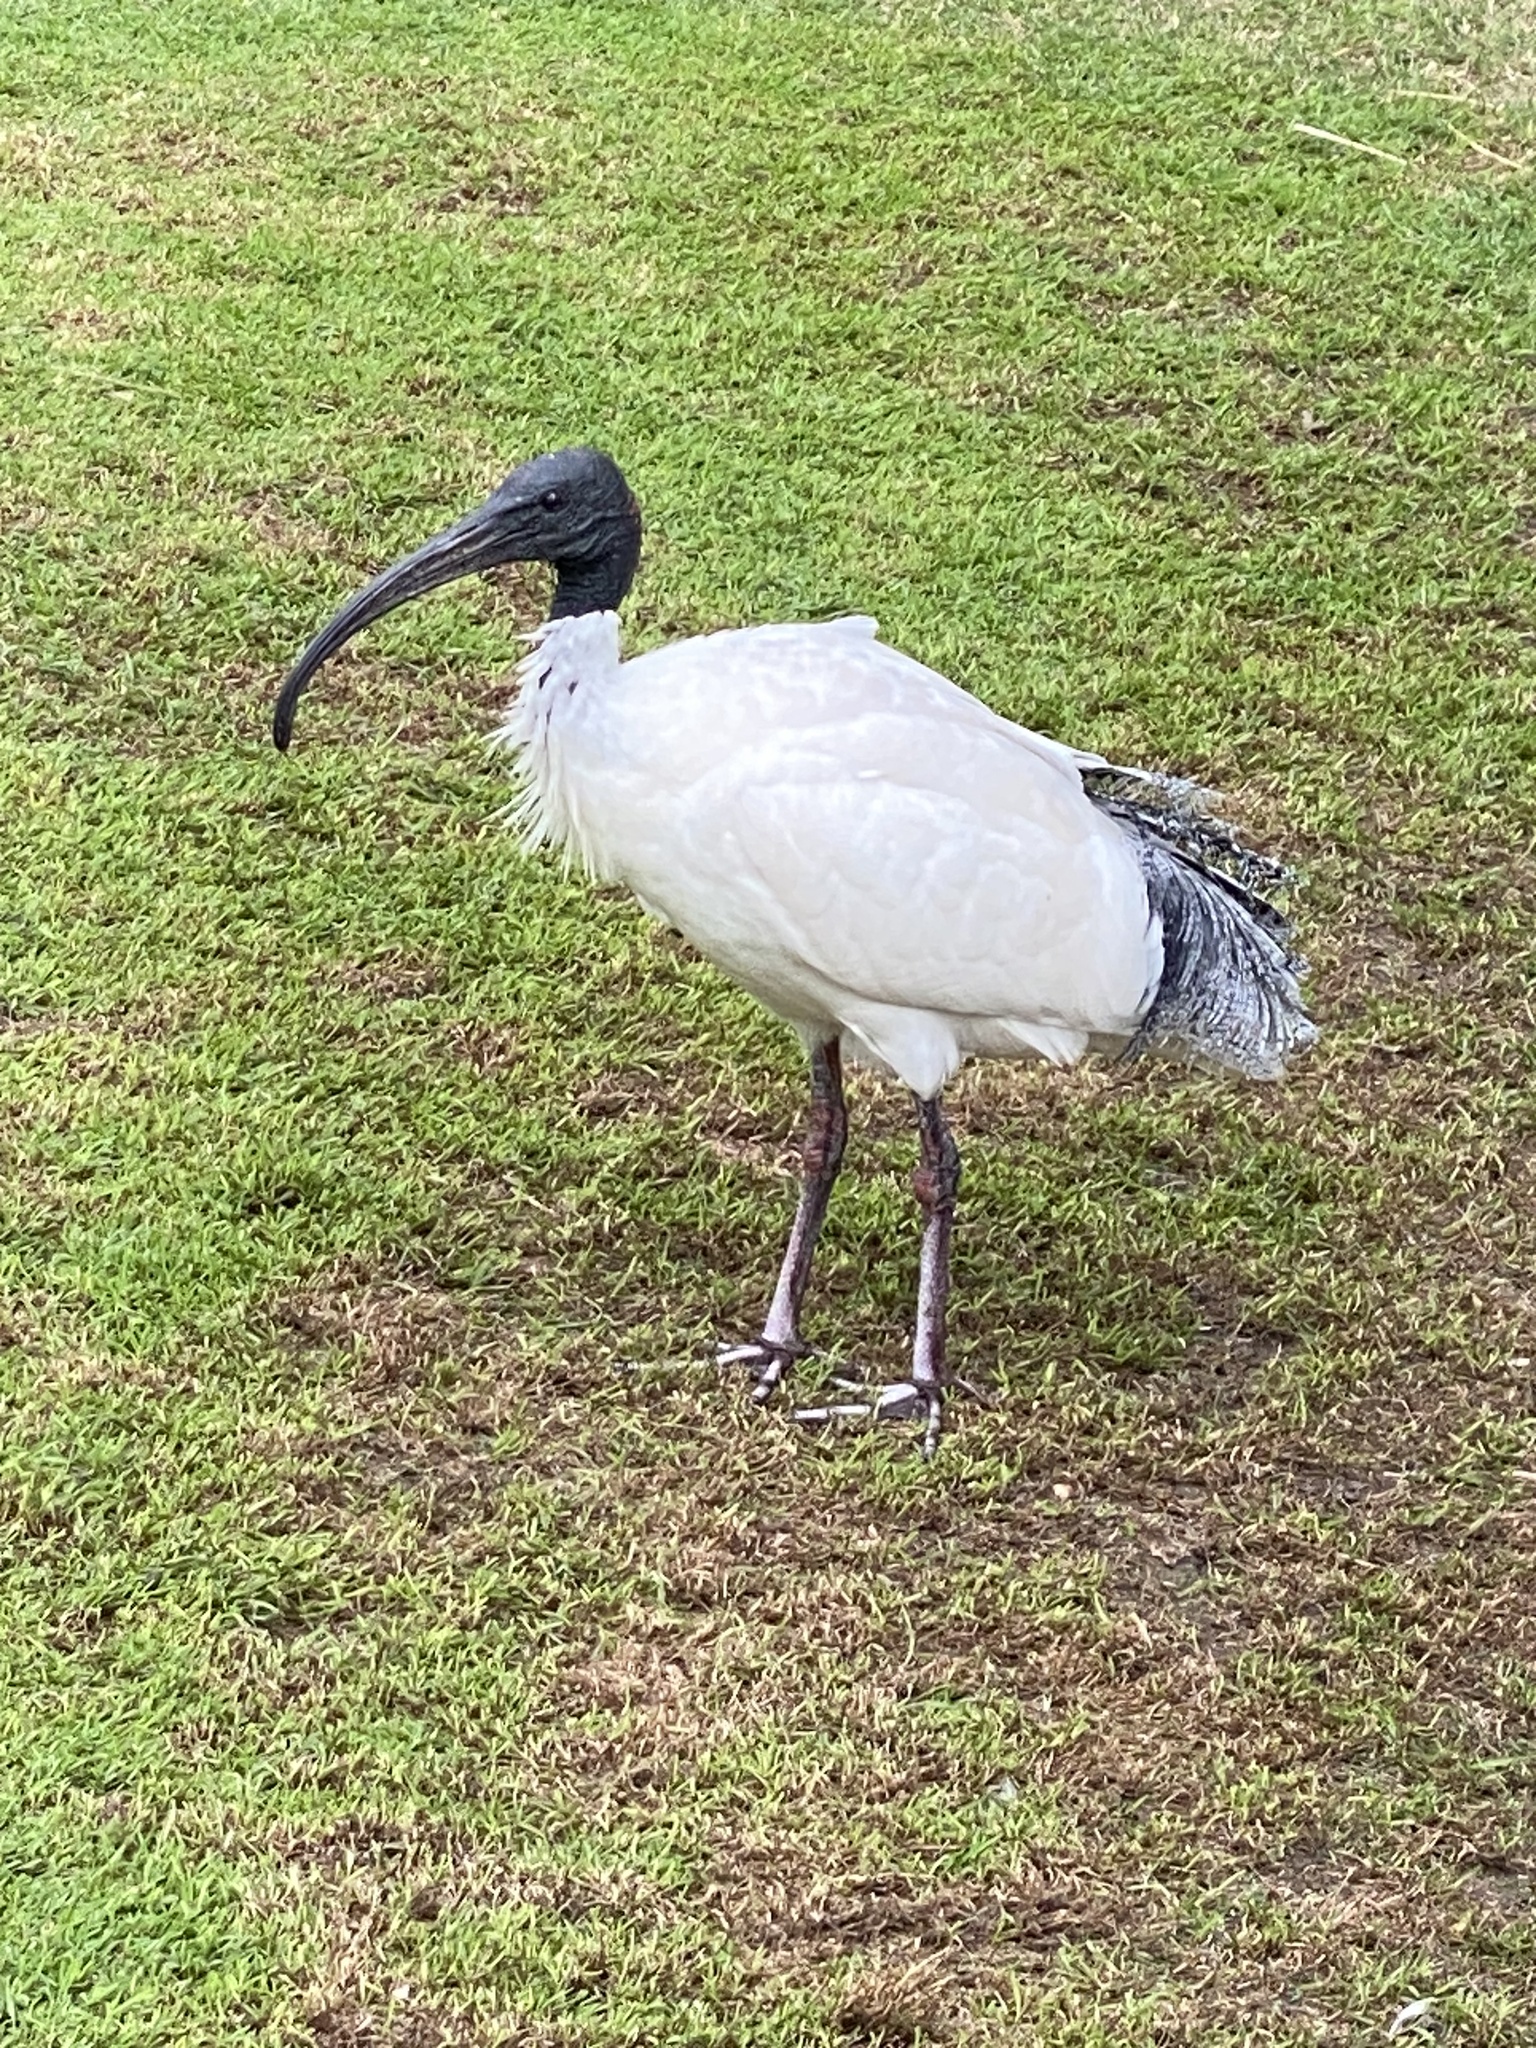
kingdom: Animalia
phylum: Chordata
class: Aves
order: Pelecaniformes
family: Threskiornithidae
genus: Threskiornis
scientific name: Threskiornis molucca
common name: Australian white ibis
